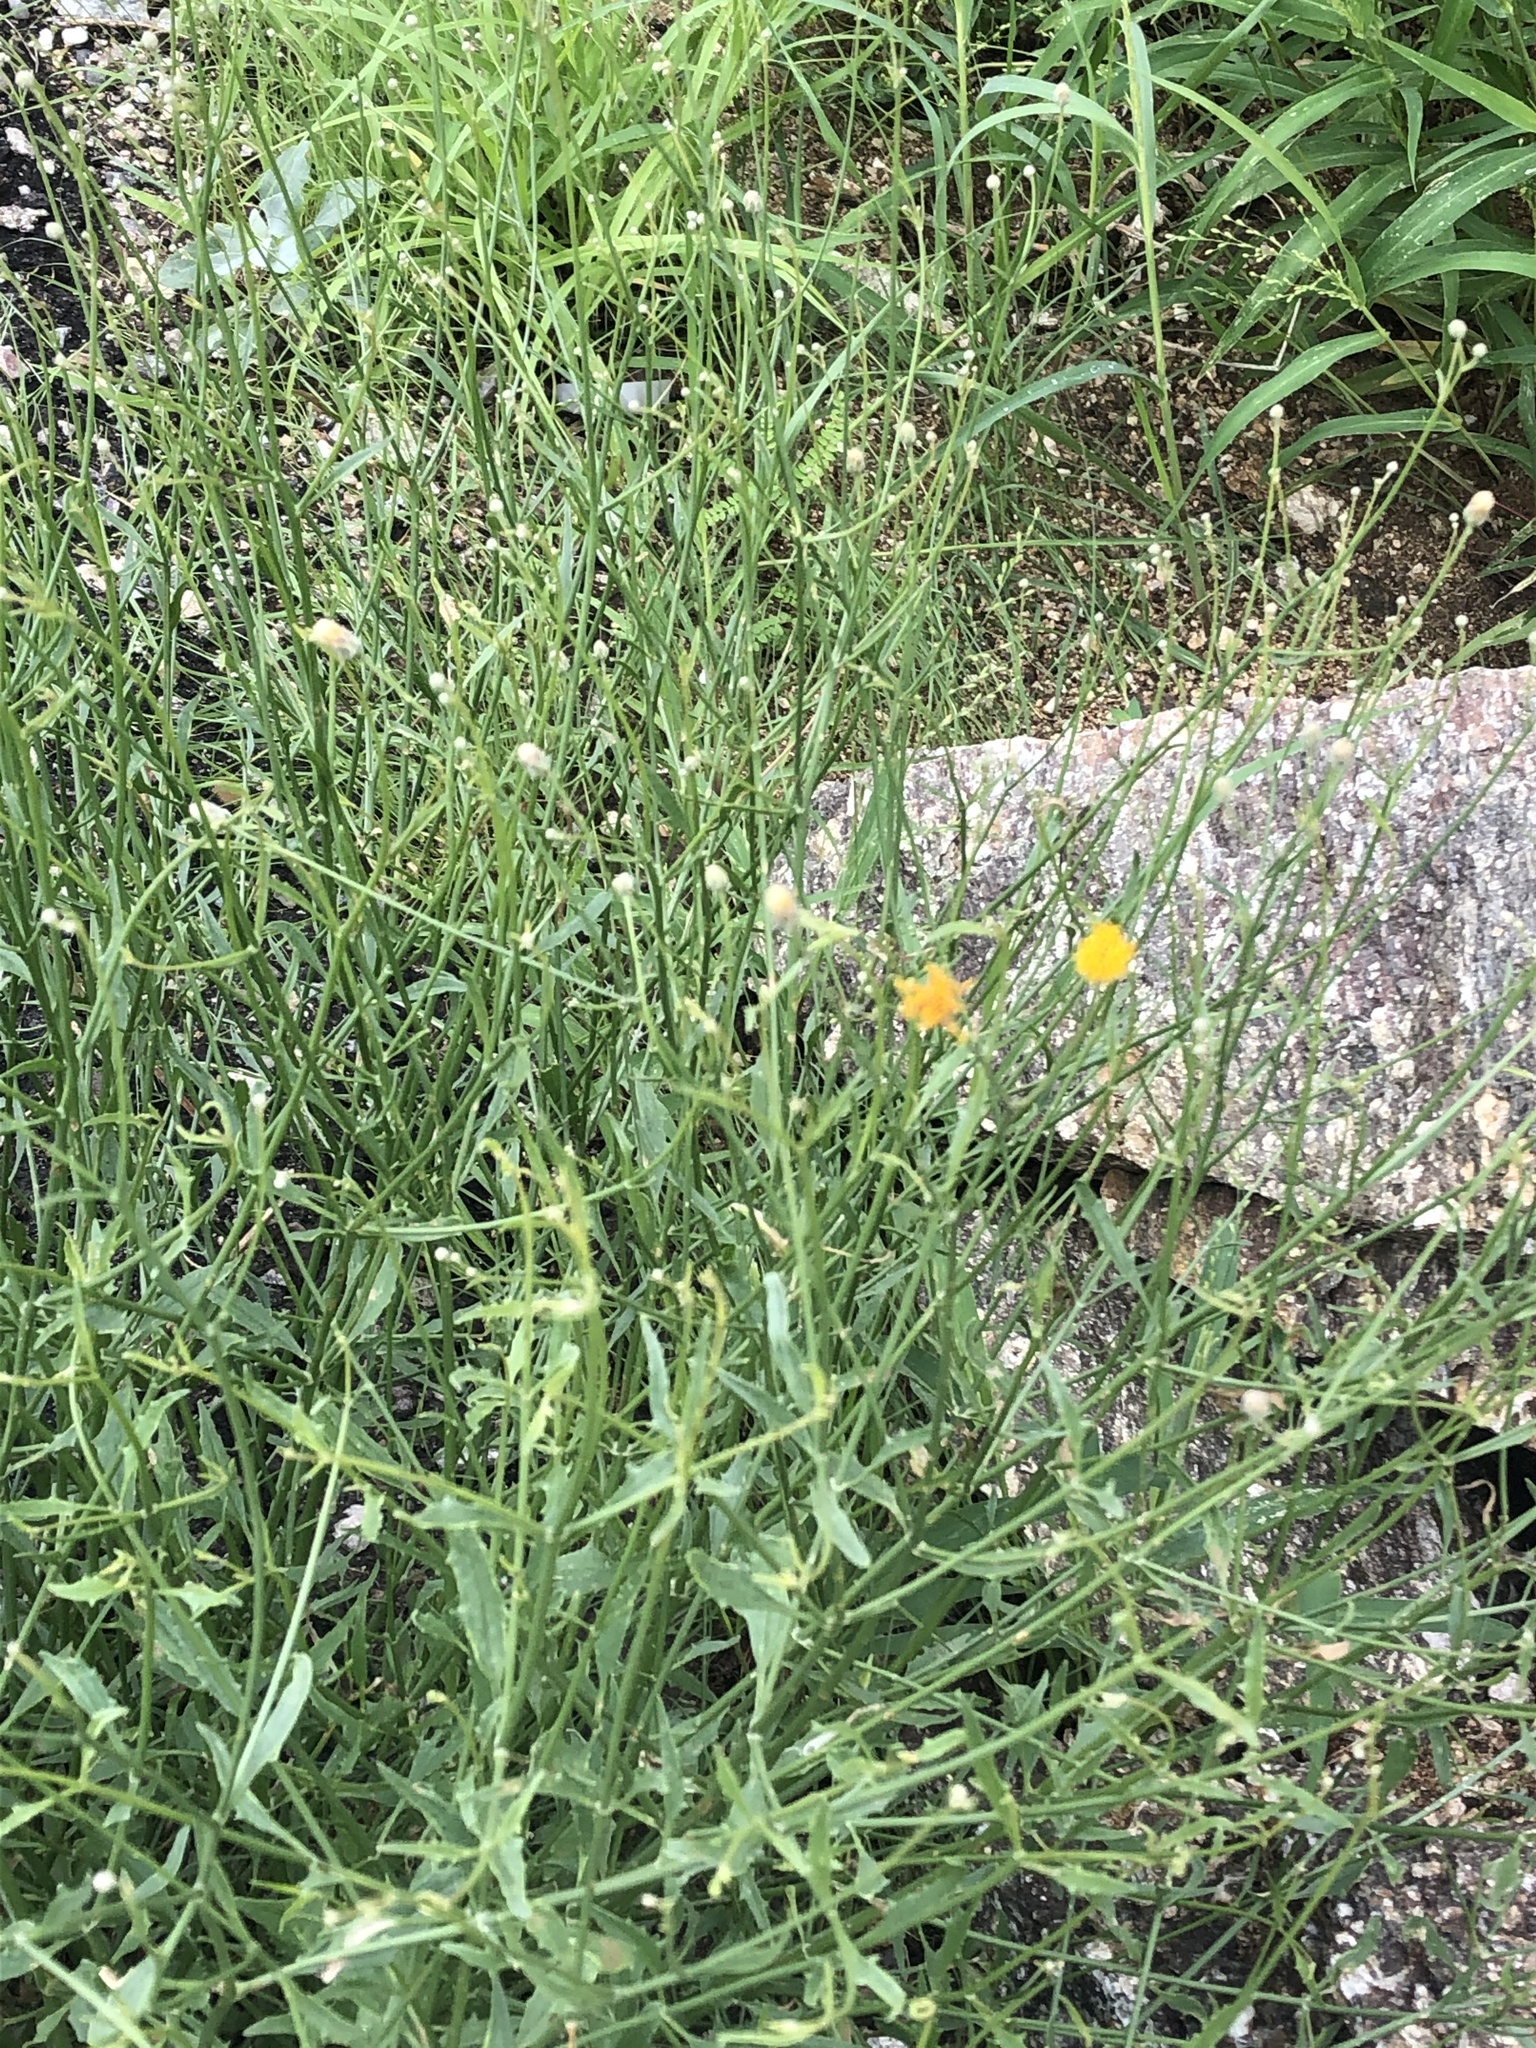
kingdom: Plantae
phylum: Tracheophyta
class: Magnoliopsida
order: Asterales
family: Asteraceae
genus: Bebbia
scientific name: Bebbia juncea
